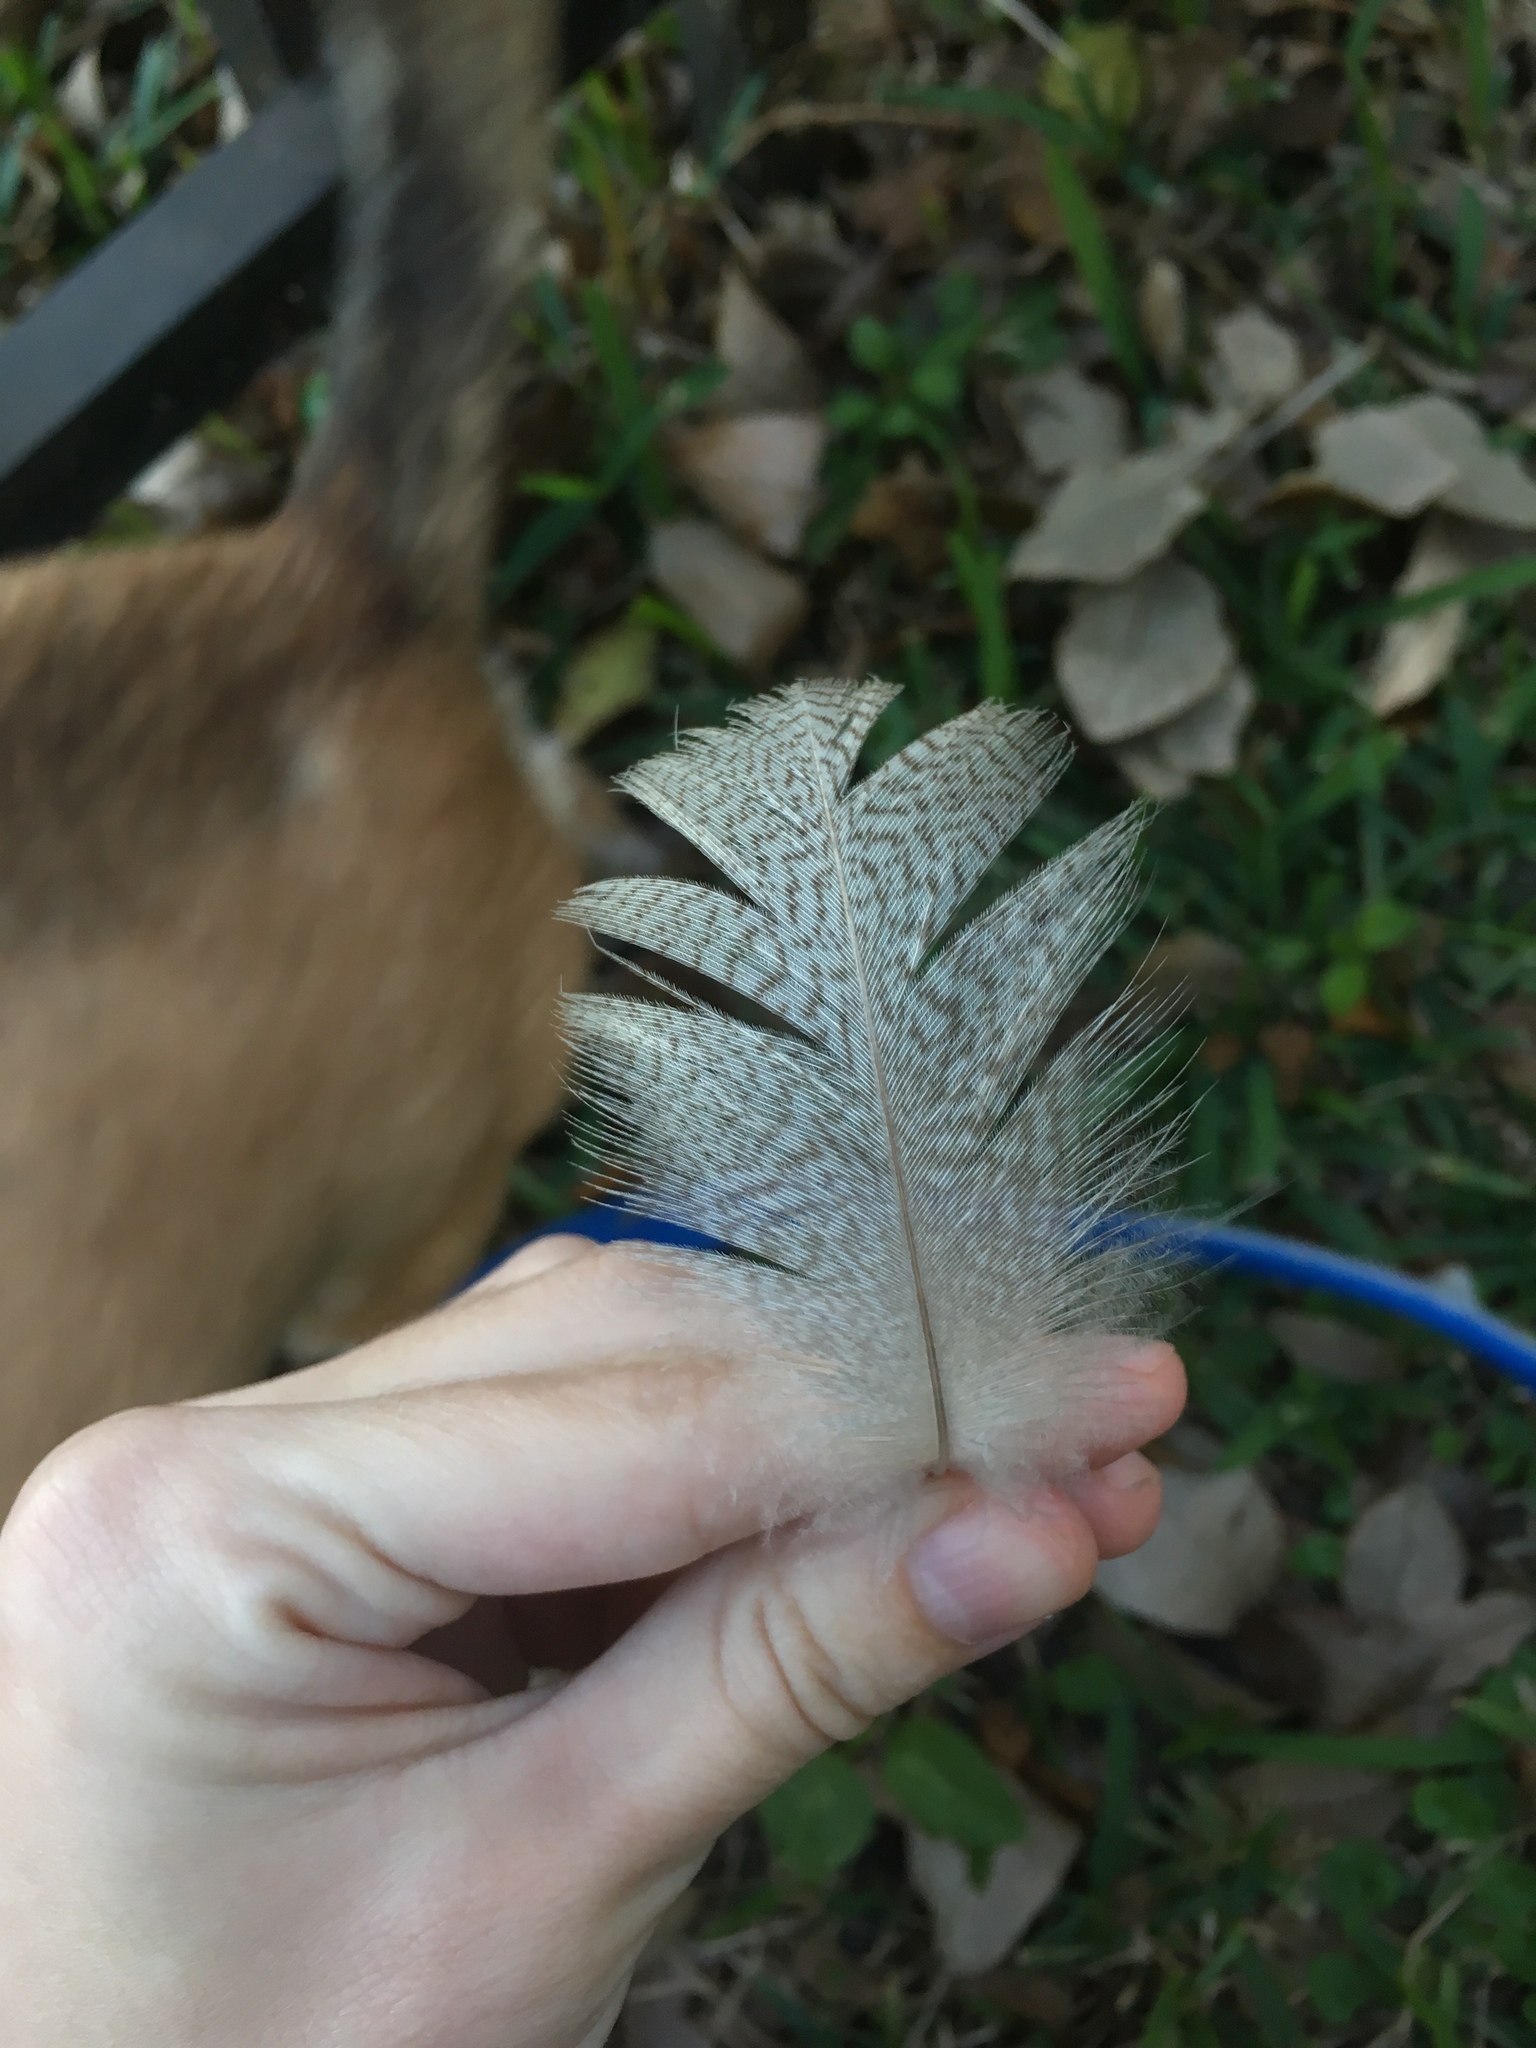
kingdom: Animalia
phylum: Chordata
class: Aves
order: Anseriformes
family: Anatidae
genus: Alopochen
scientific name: Alopochen aegyptiaca
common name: Egyptian goose
